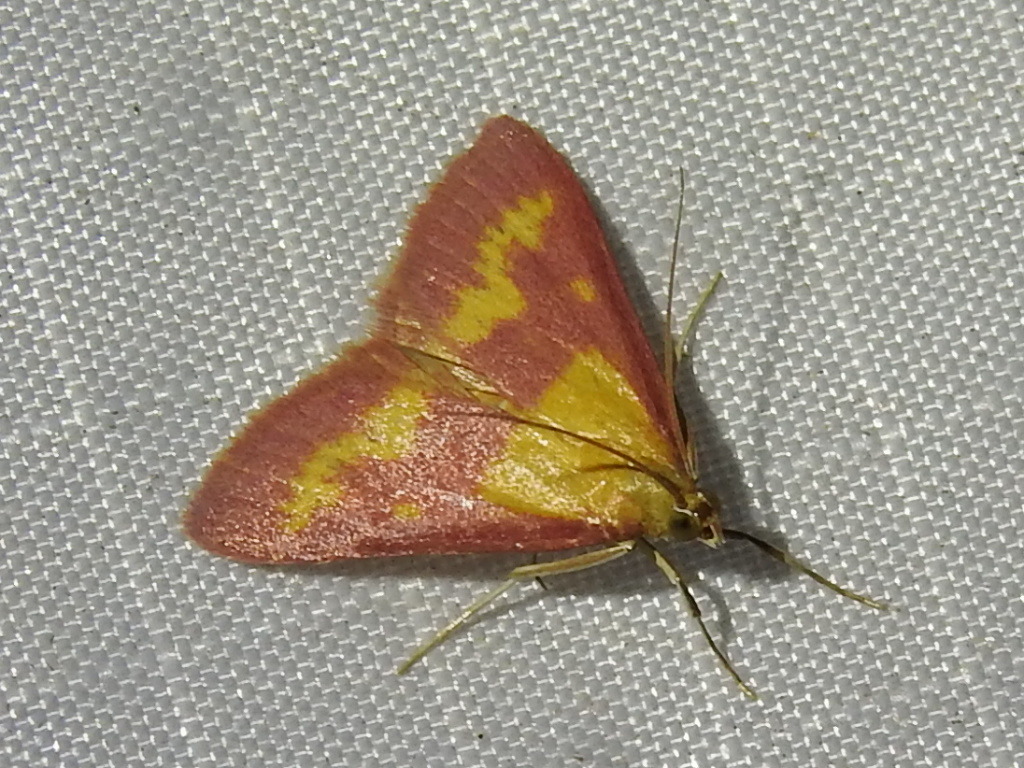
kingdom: Animalia
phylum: Arthropoda
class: Insecta
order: Lepidoptera
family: Crambidae
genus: Pyrausta
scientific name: Pyrausta laticlavia
